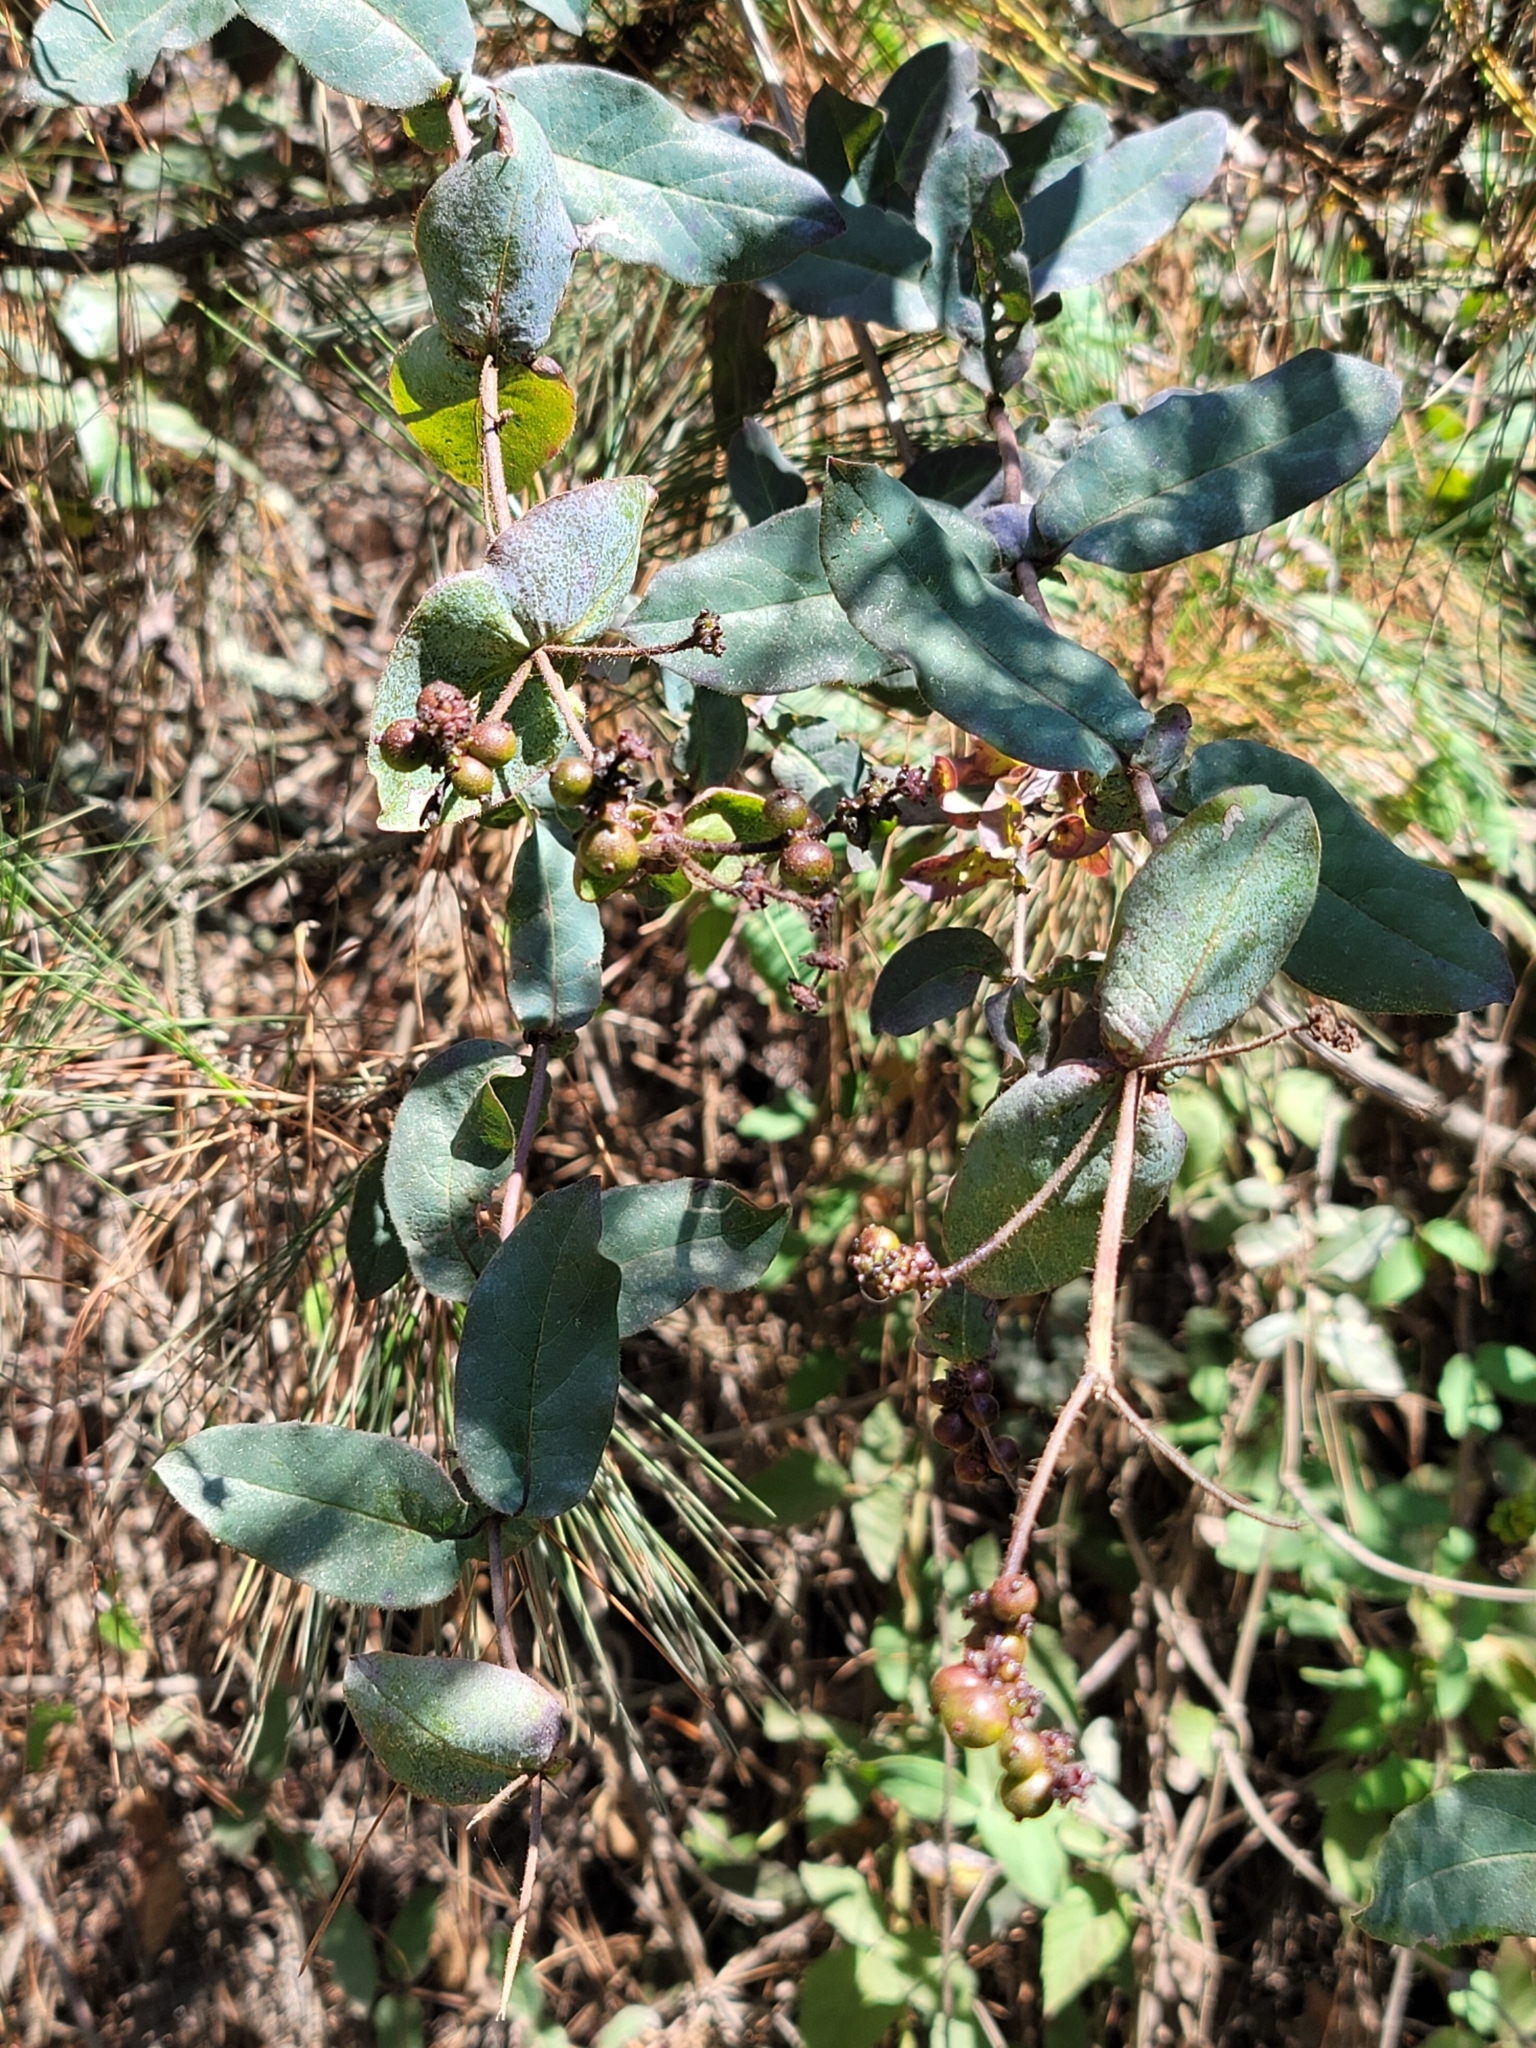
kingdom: Plantae
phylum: Tracheophyta
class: Magnoliopsida
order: Dipsacales
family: Caprifoliaceae
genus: Lonicera
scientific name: Lonicera hispidula
